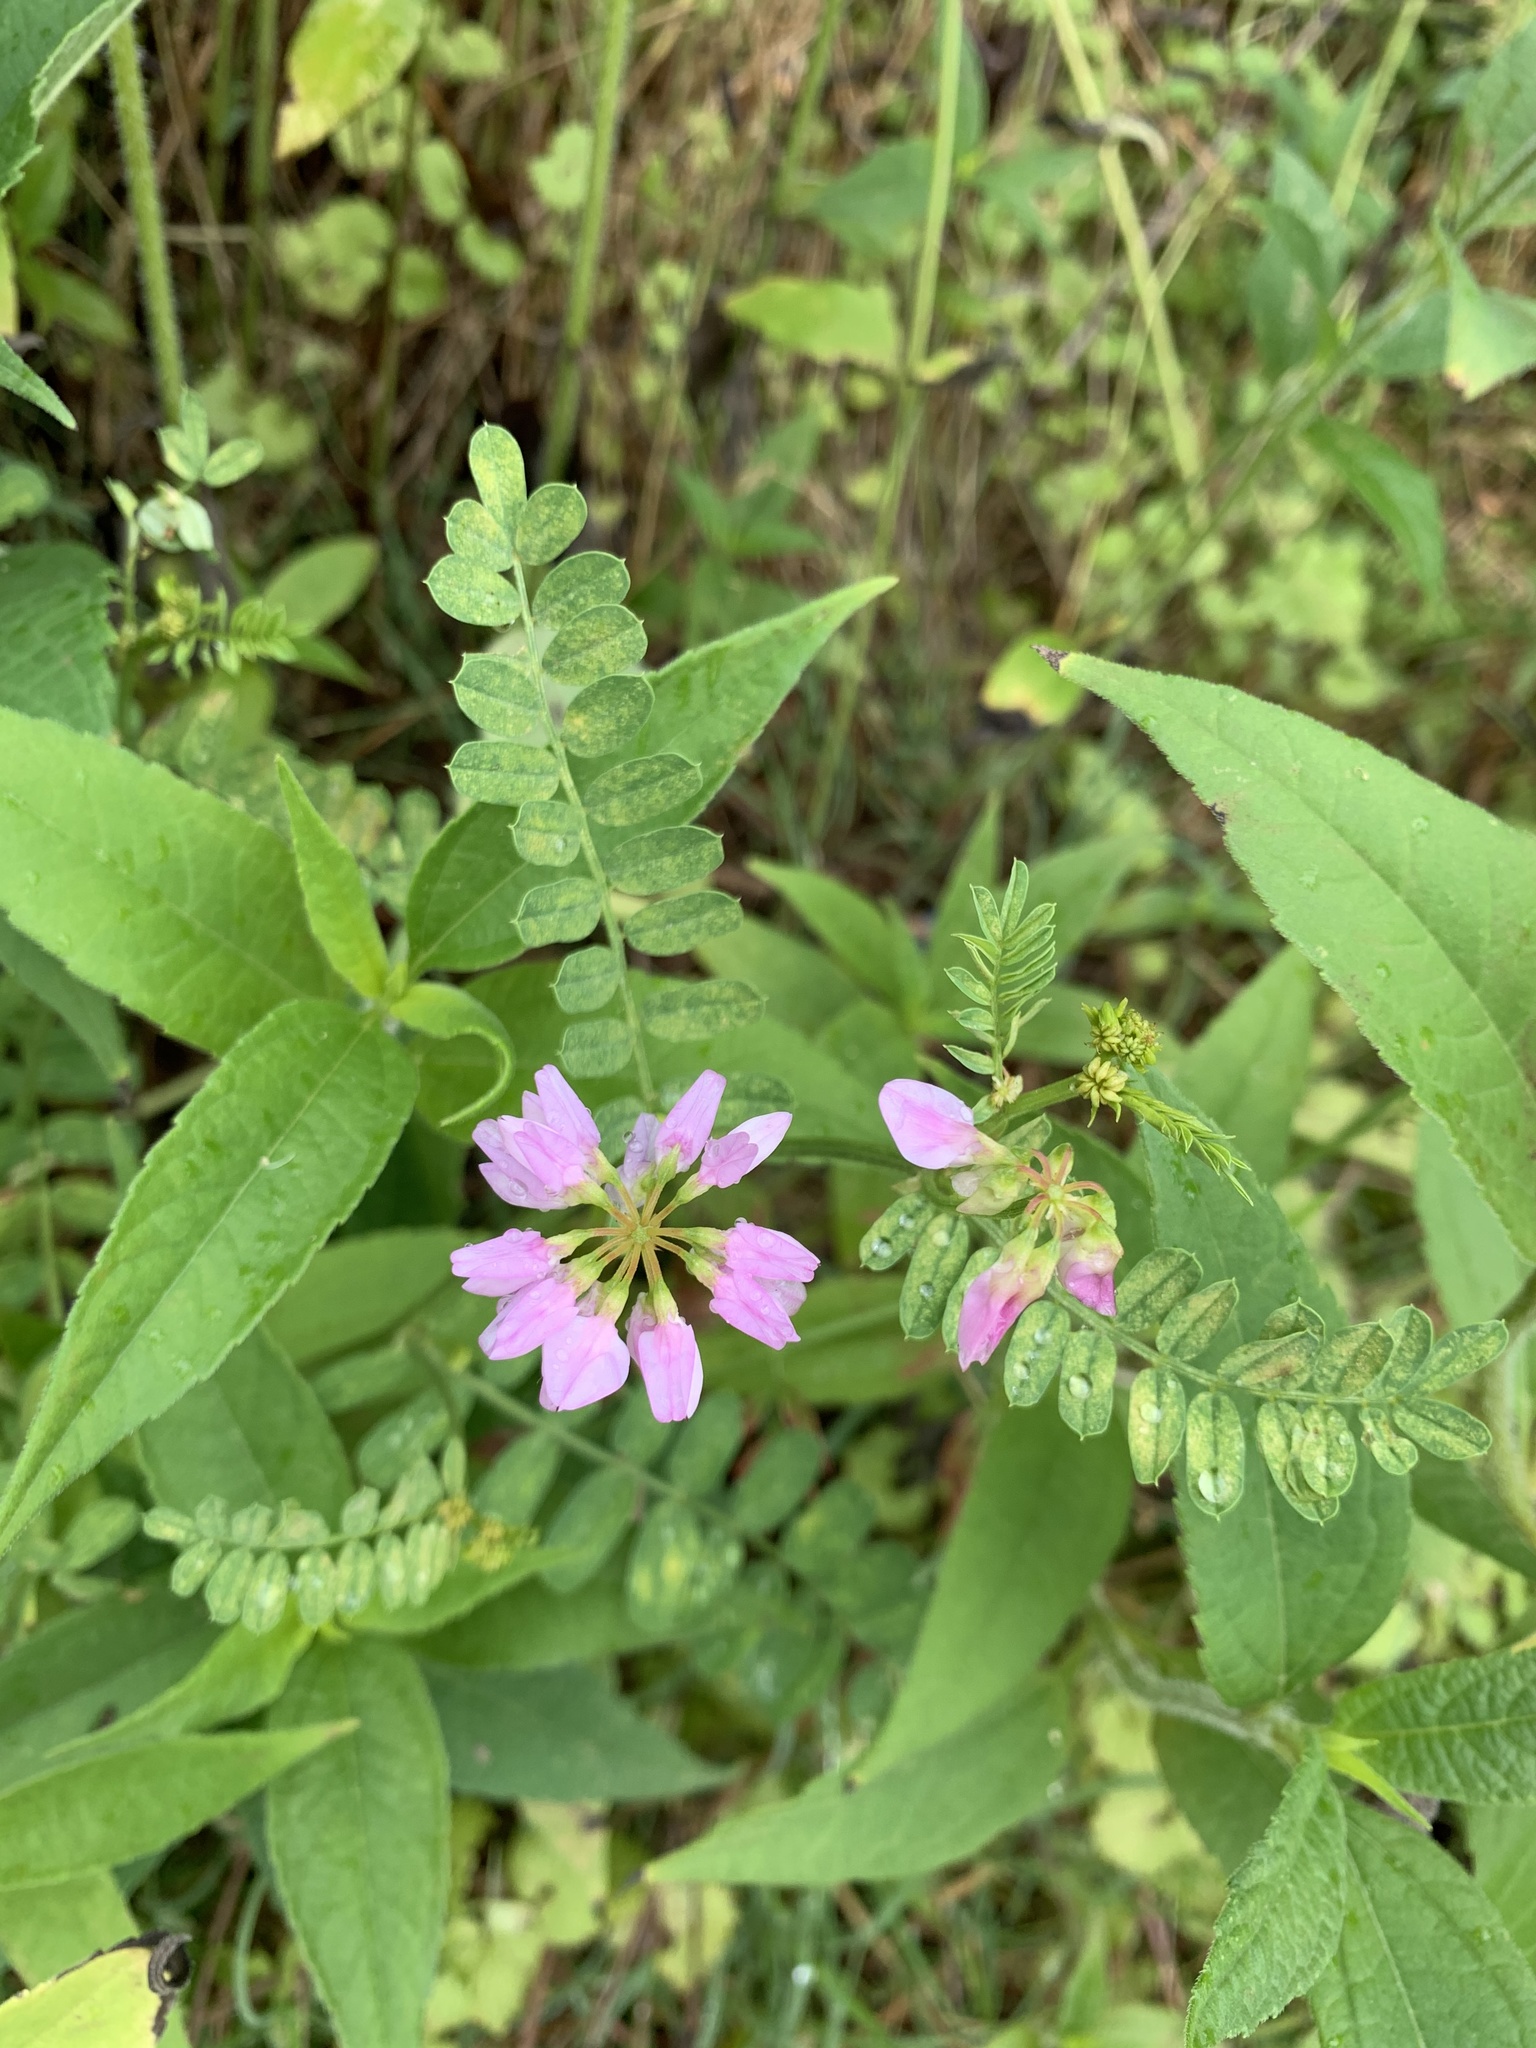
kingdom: Plantae
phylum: Tracheophyta
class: Magnoliopsida
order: Fabales
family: Fabaceae
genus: Coronilla
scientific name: Coronilla varia
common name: Crownvetch
